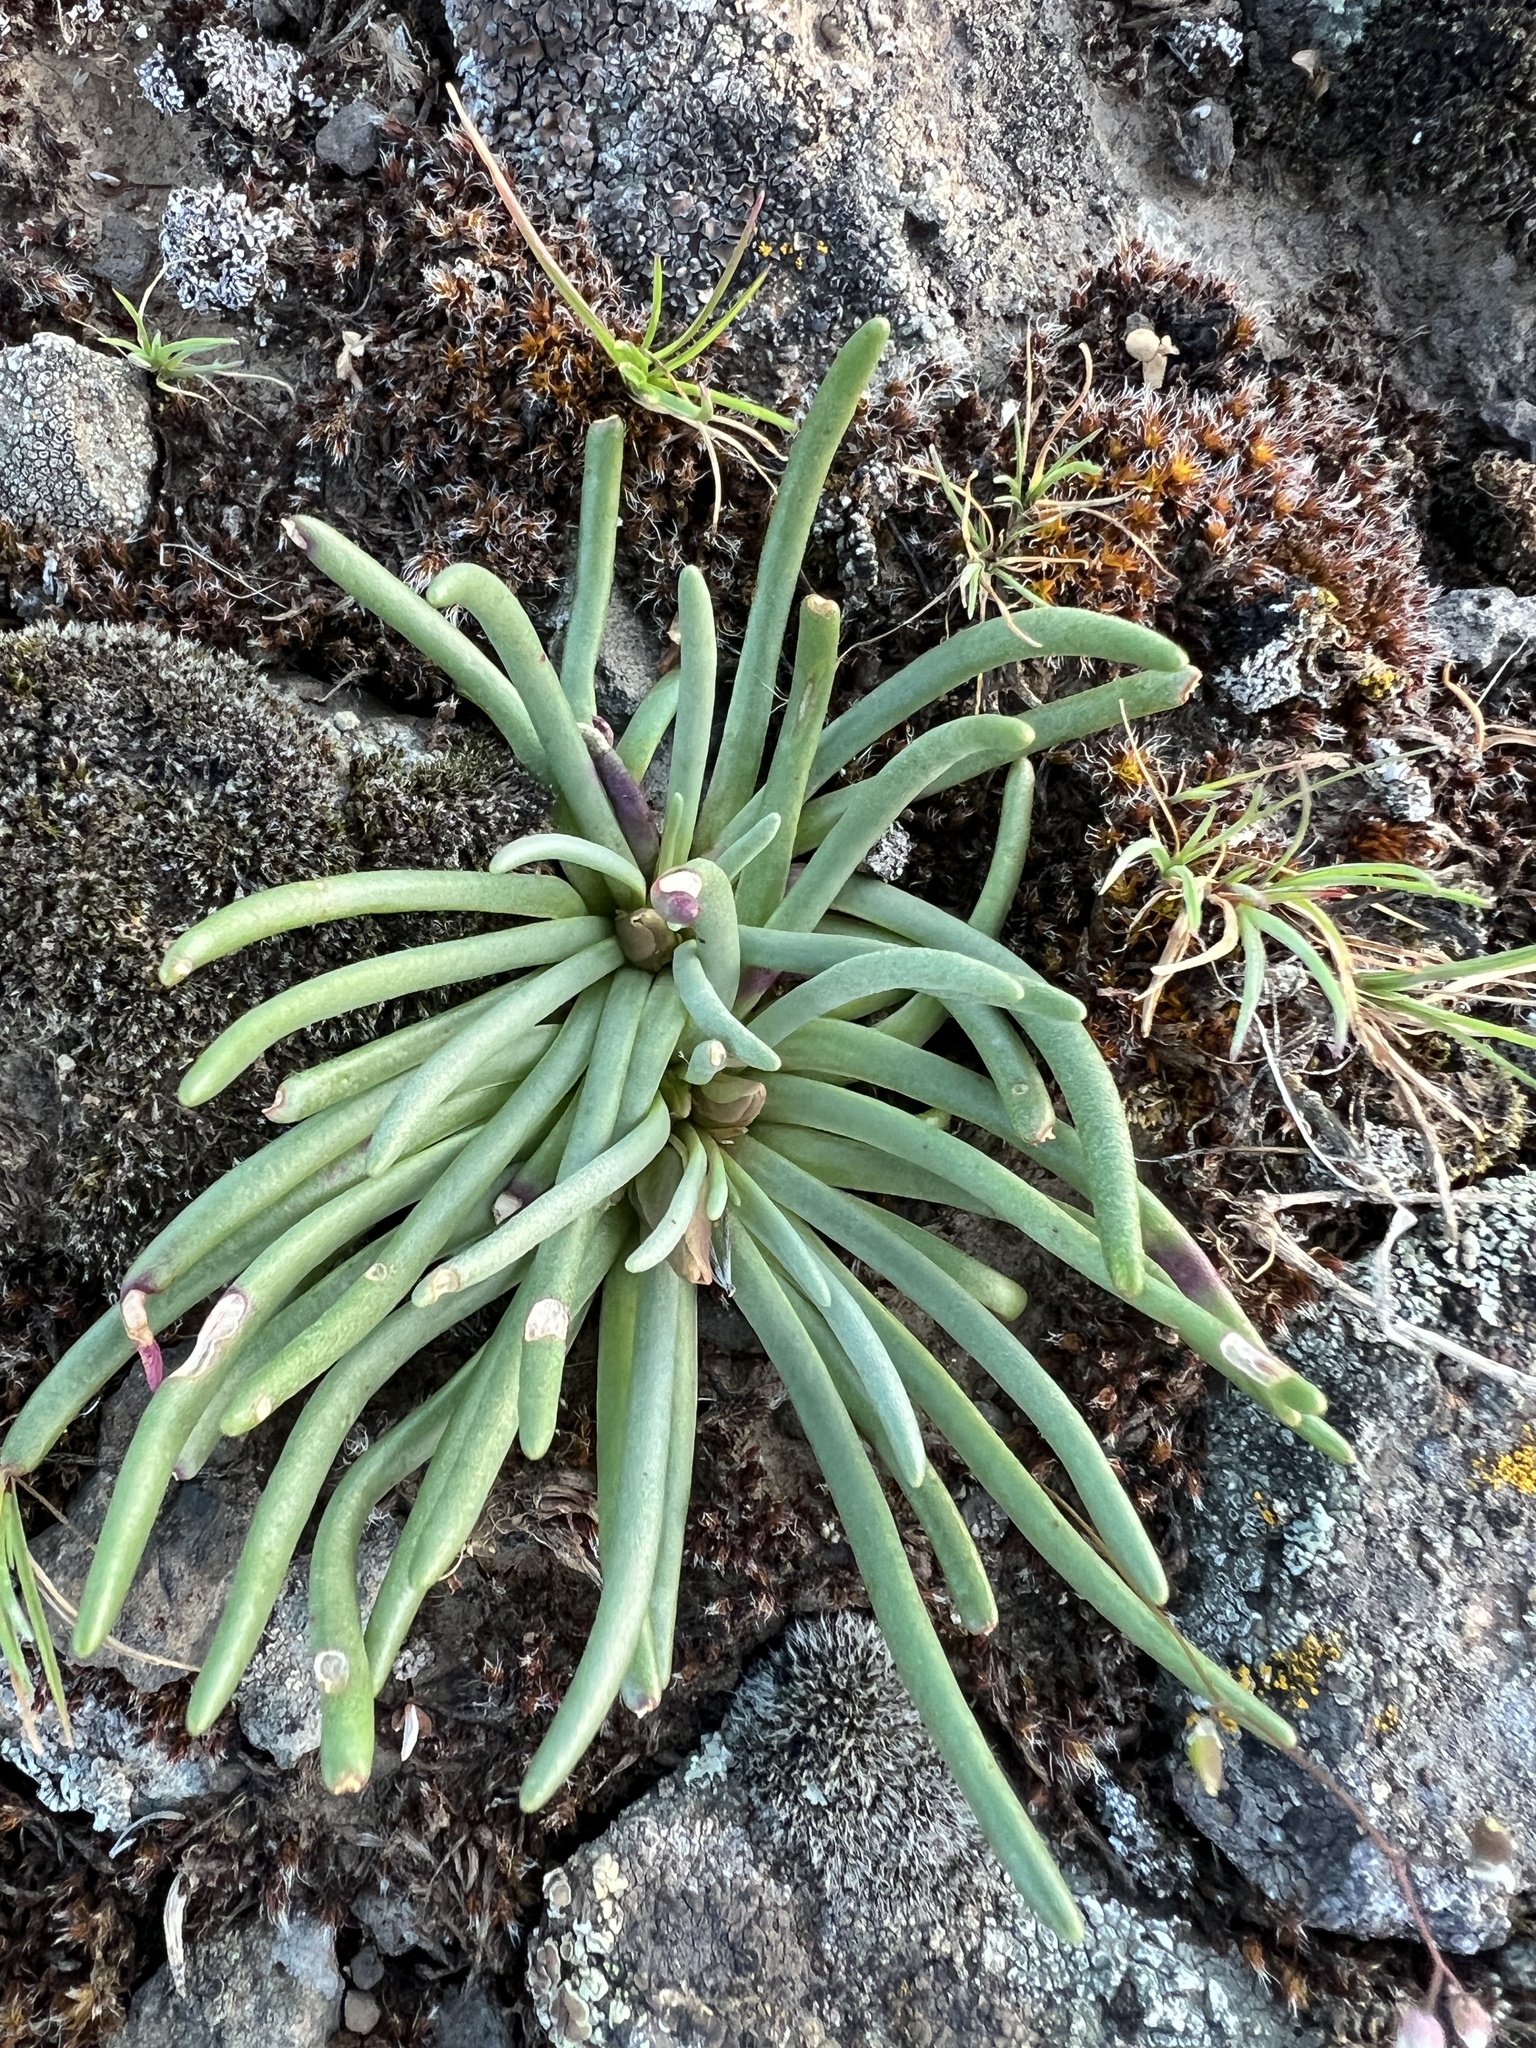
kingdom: Plantae
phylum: Tracheophyta
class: Magnoliopsida
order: Caryophyllales
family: Montiaceae
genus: Lewisia
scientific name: Lewisia rediviva
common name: Bitter-root
